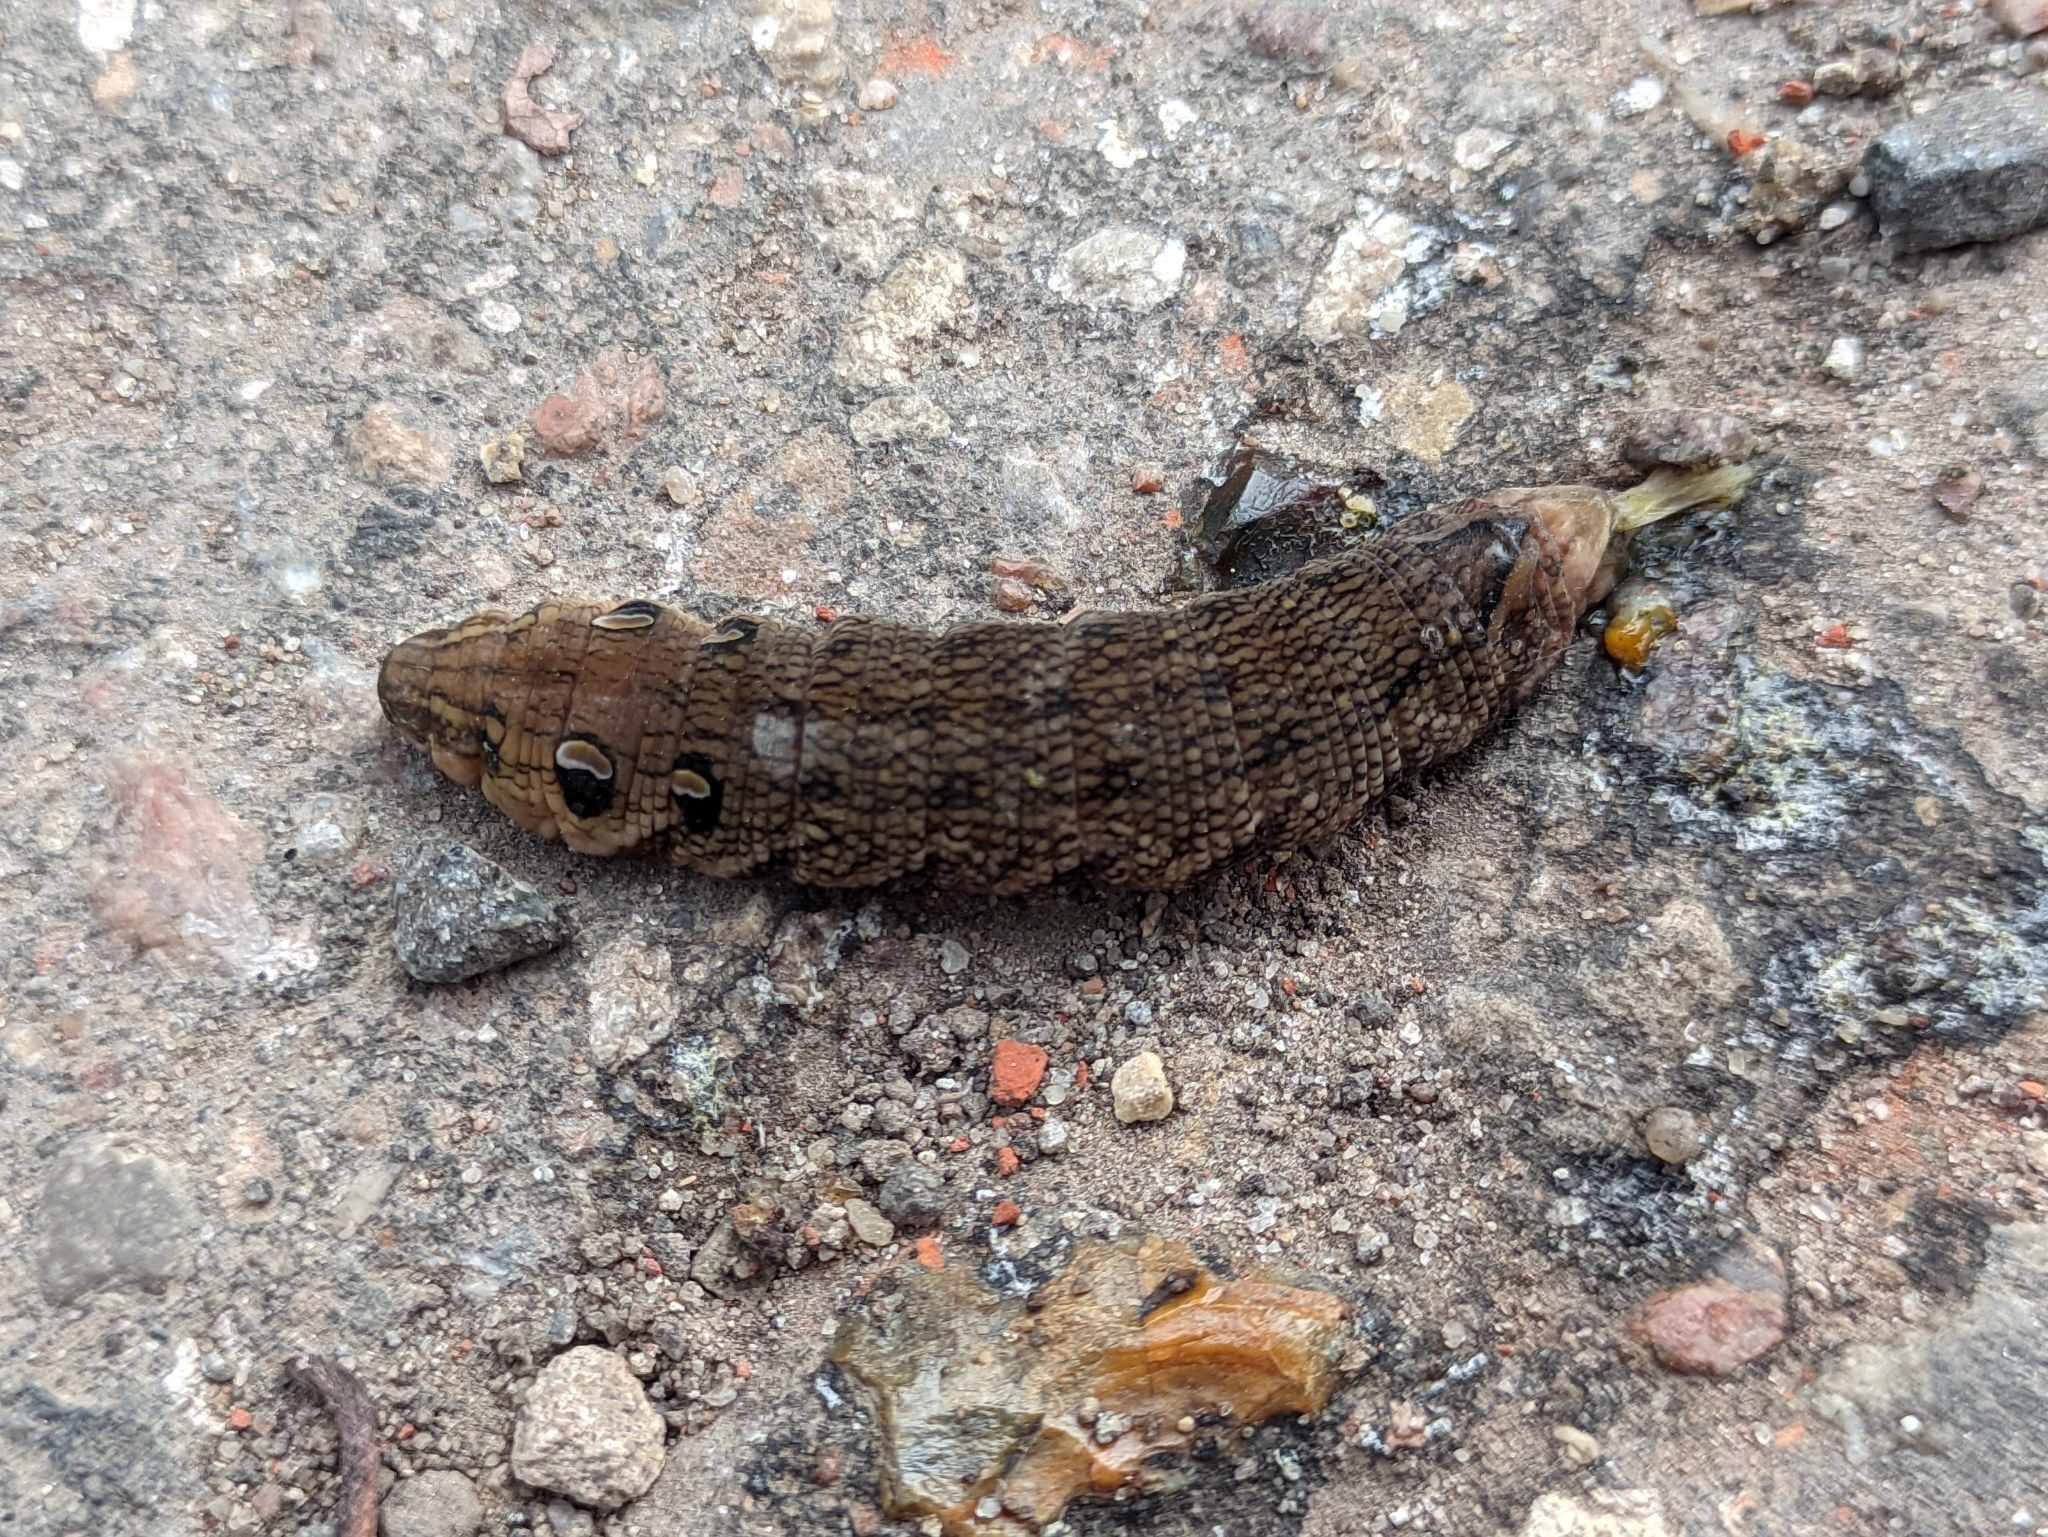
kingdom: Animalia
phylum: Arthropoda
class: Insecta
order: Lepidoptera
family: Sphingidae
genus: Deilephila
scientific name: Deilephila elpenor
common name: Elephant hawk-moth
